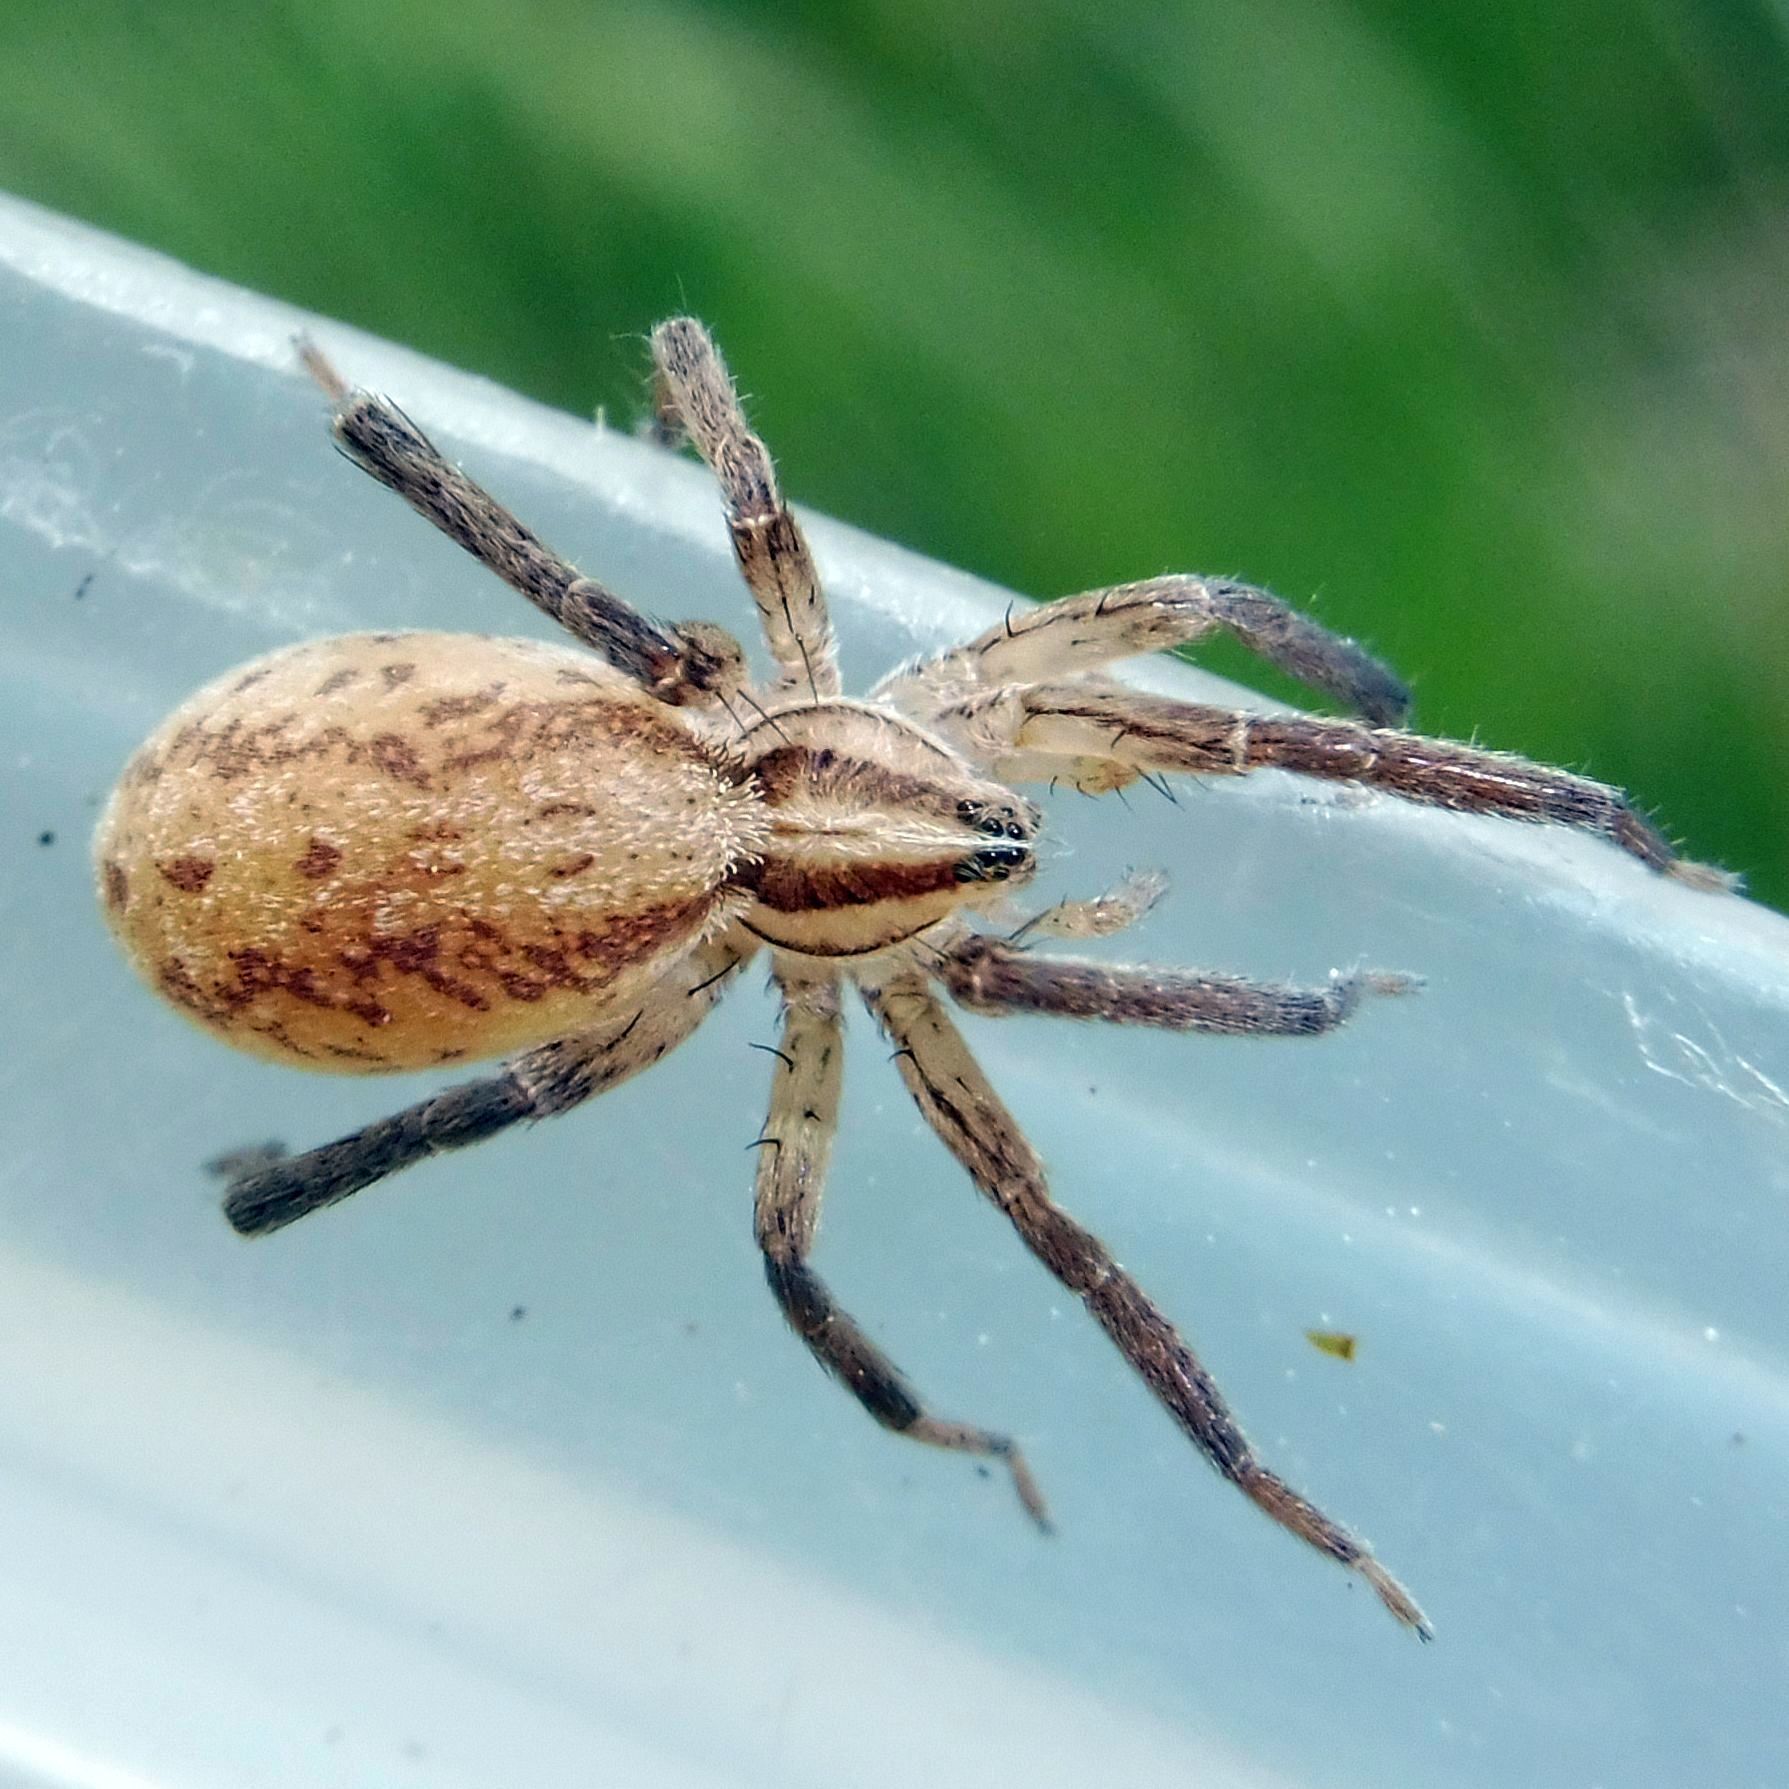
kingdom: Animalia
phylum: Arthropoda
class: Arachnida
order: Araneae
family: Miturgidae
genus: Zora
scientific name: Zora spinimana
